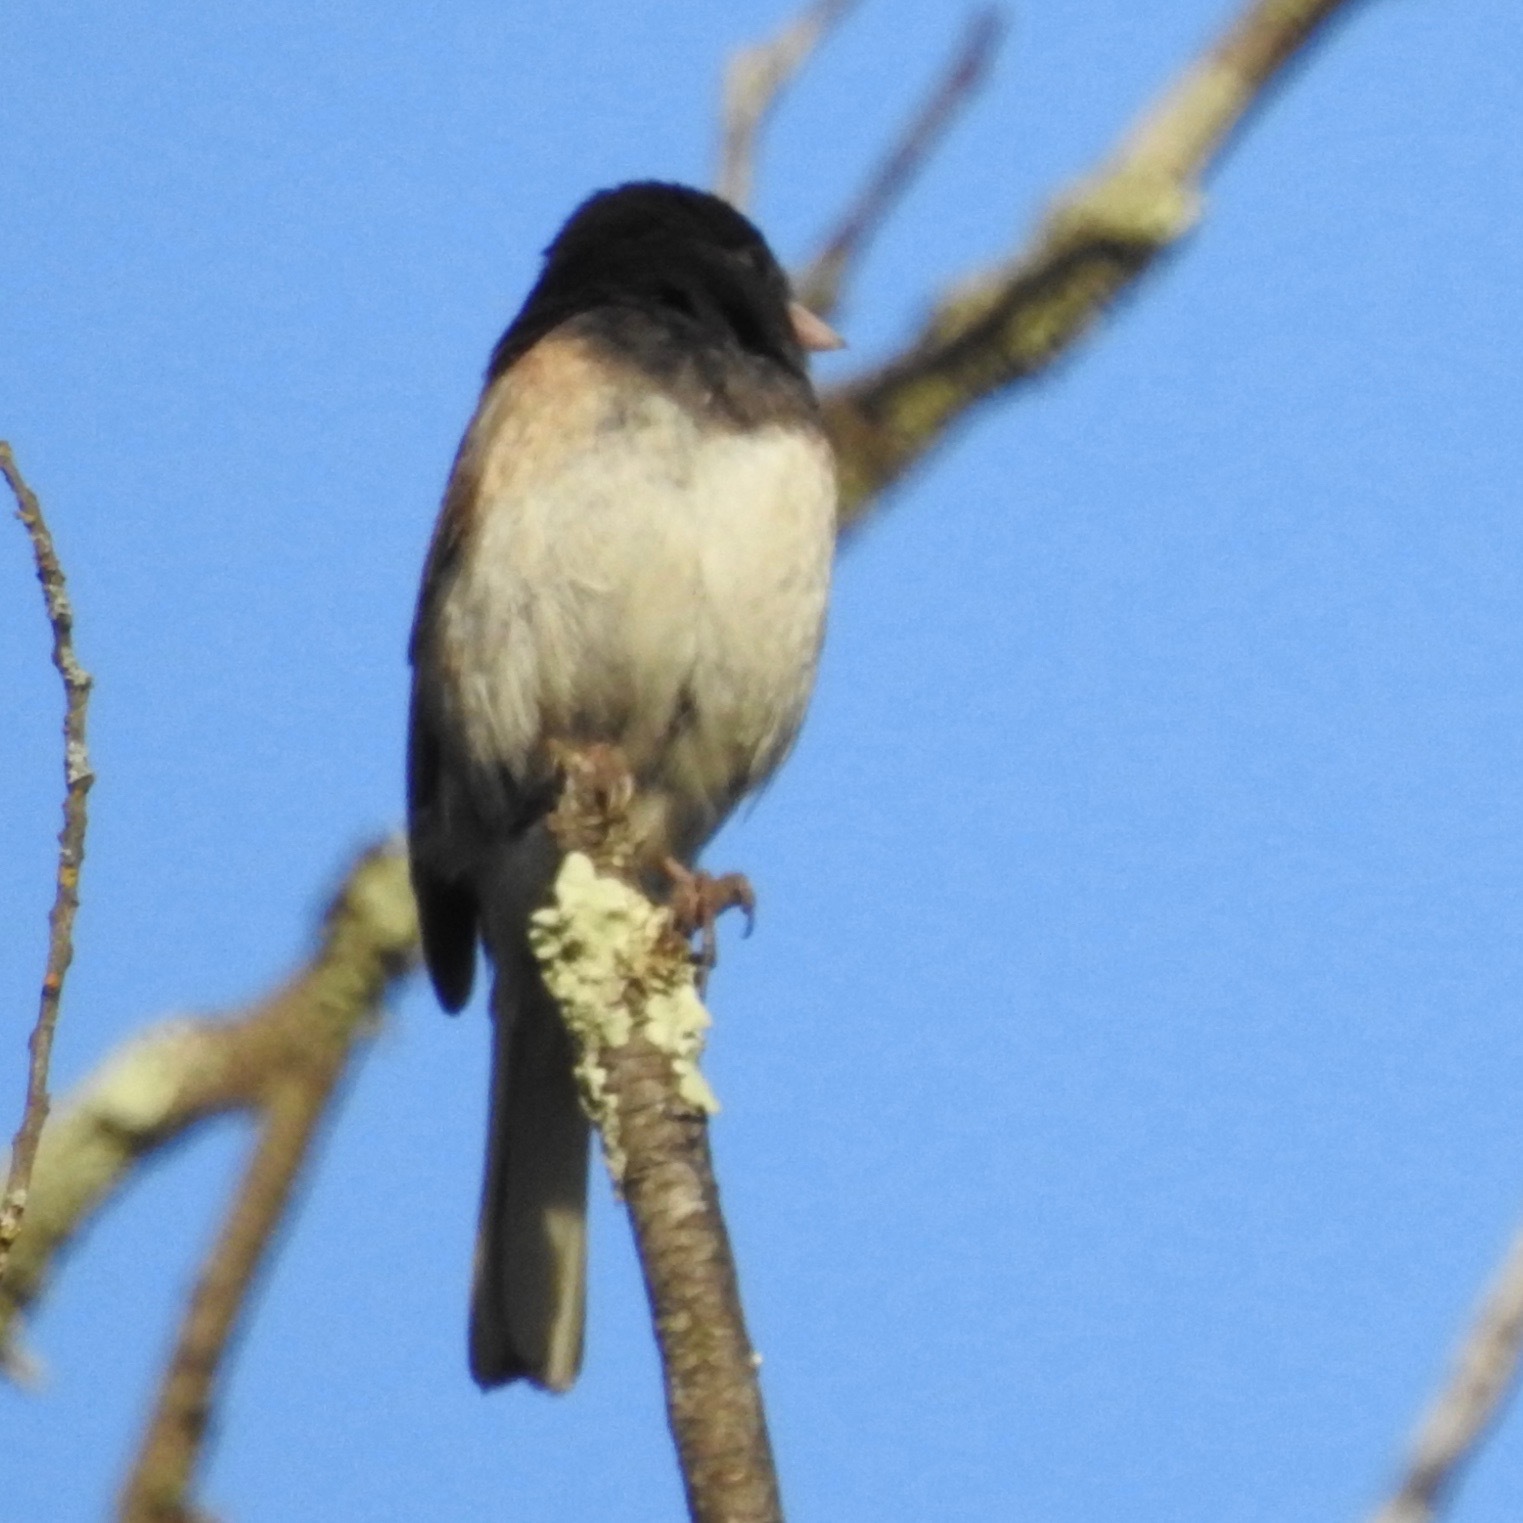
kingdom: Animalia
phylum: Chordata
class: Aves
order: Passeriformes
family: Passerellidae
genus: Junco
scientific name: Junco hyemalis
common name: Dark-eyed junco
